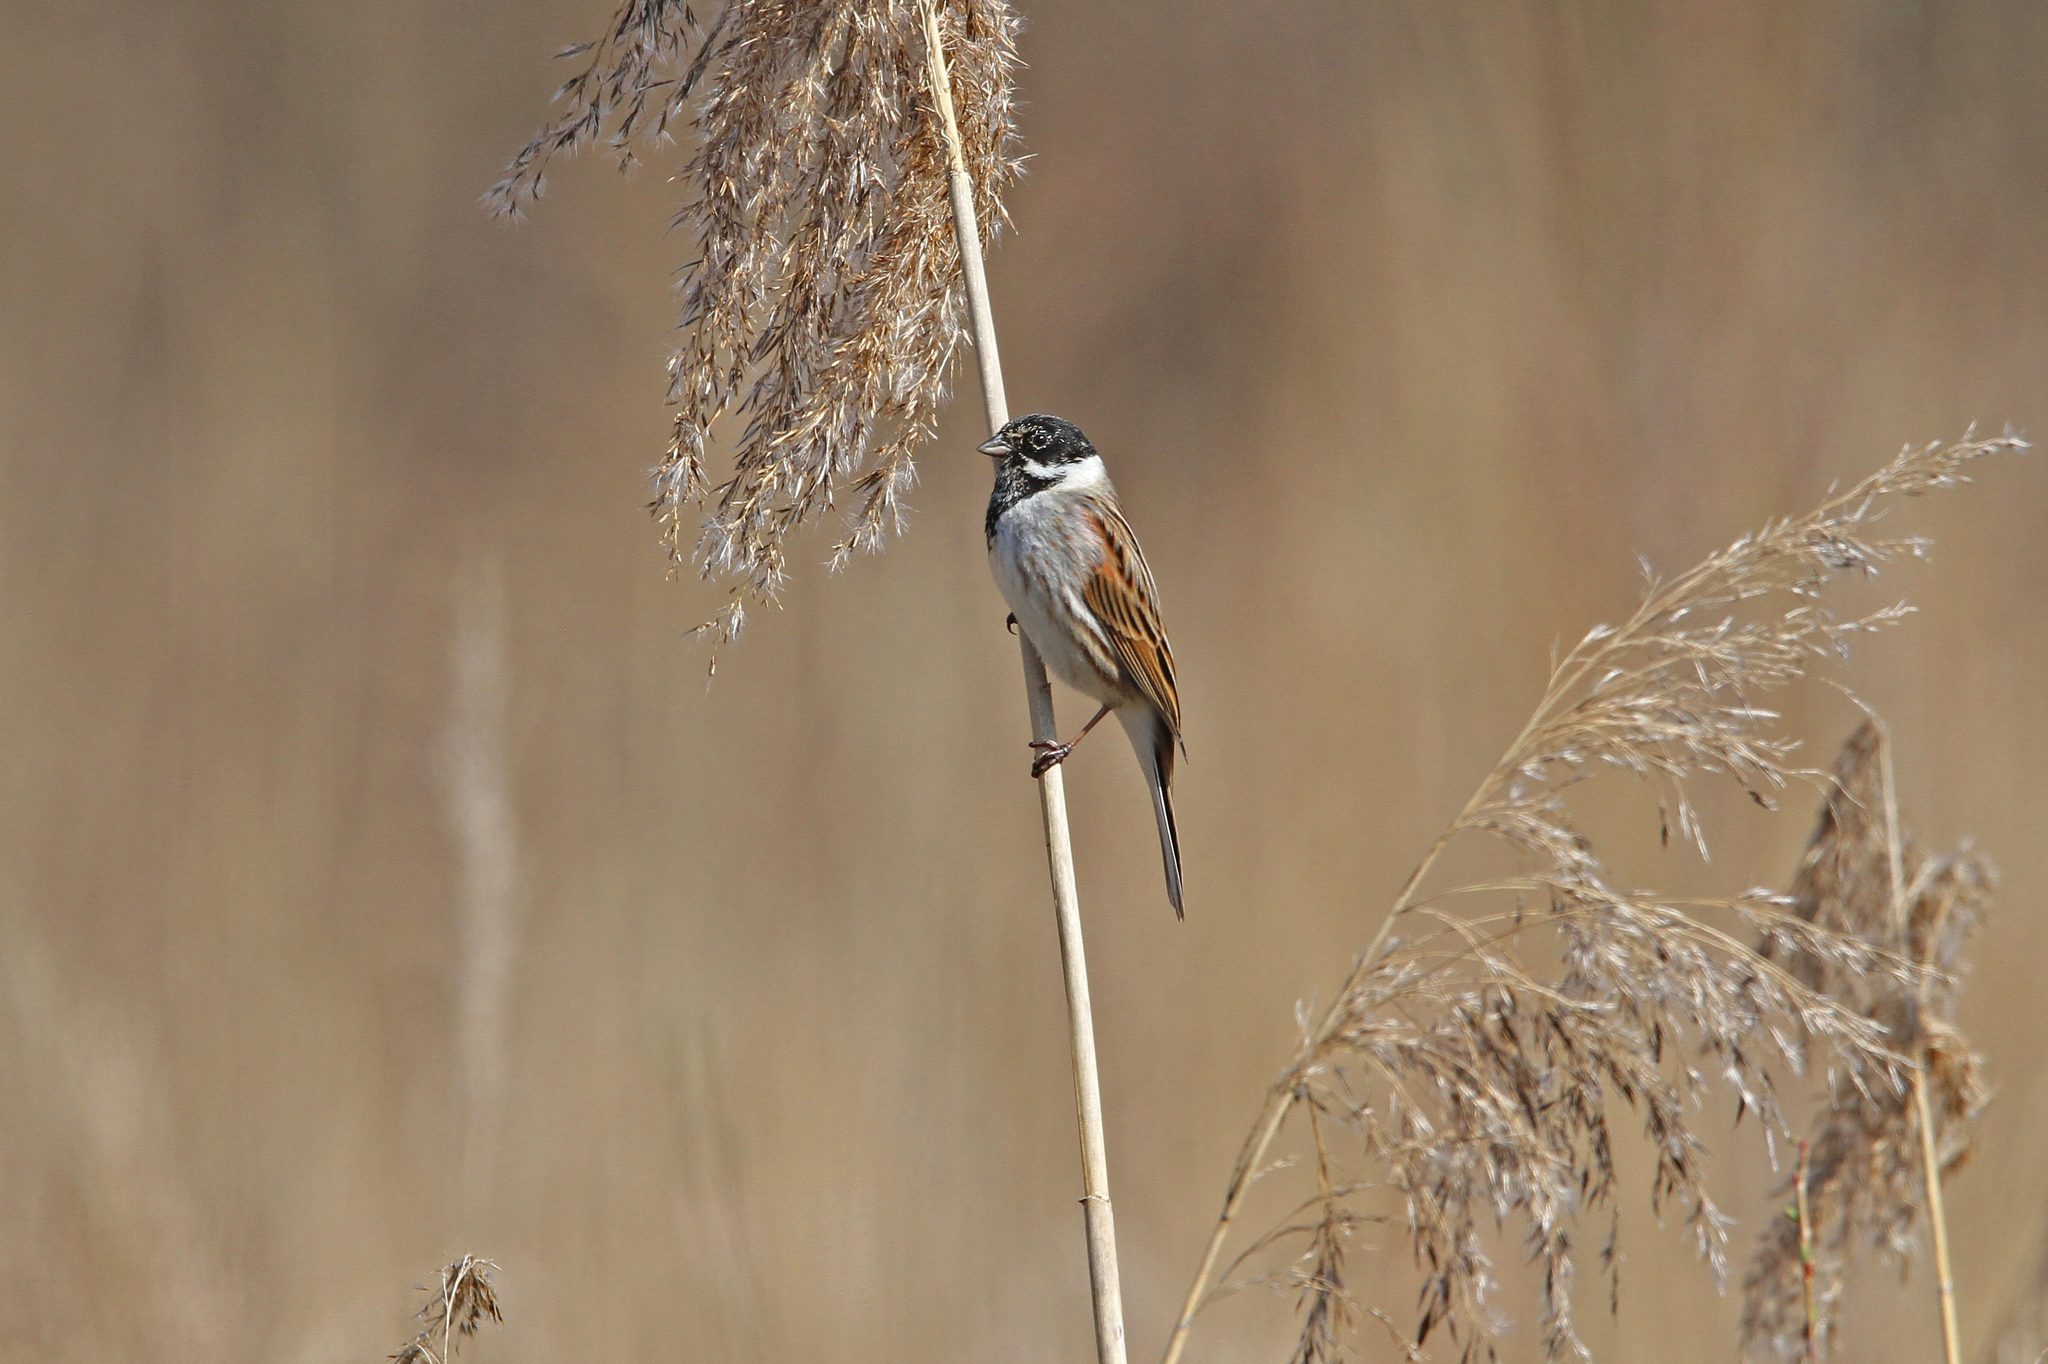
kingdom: Animalia
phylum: Chordata
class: Aves
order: Passeriformes
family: Emberizidae
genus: Emberiza
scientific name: Emberiza schoeniclus
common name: Reed bunting
